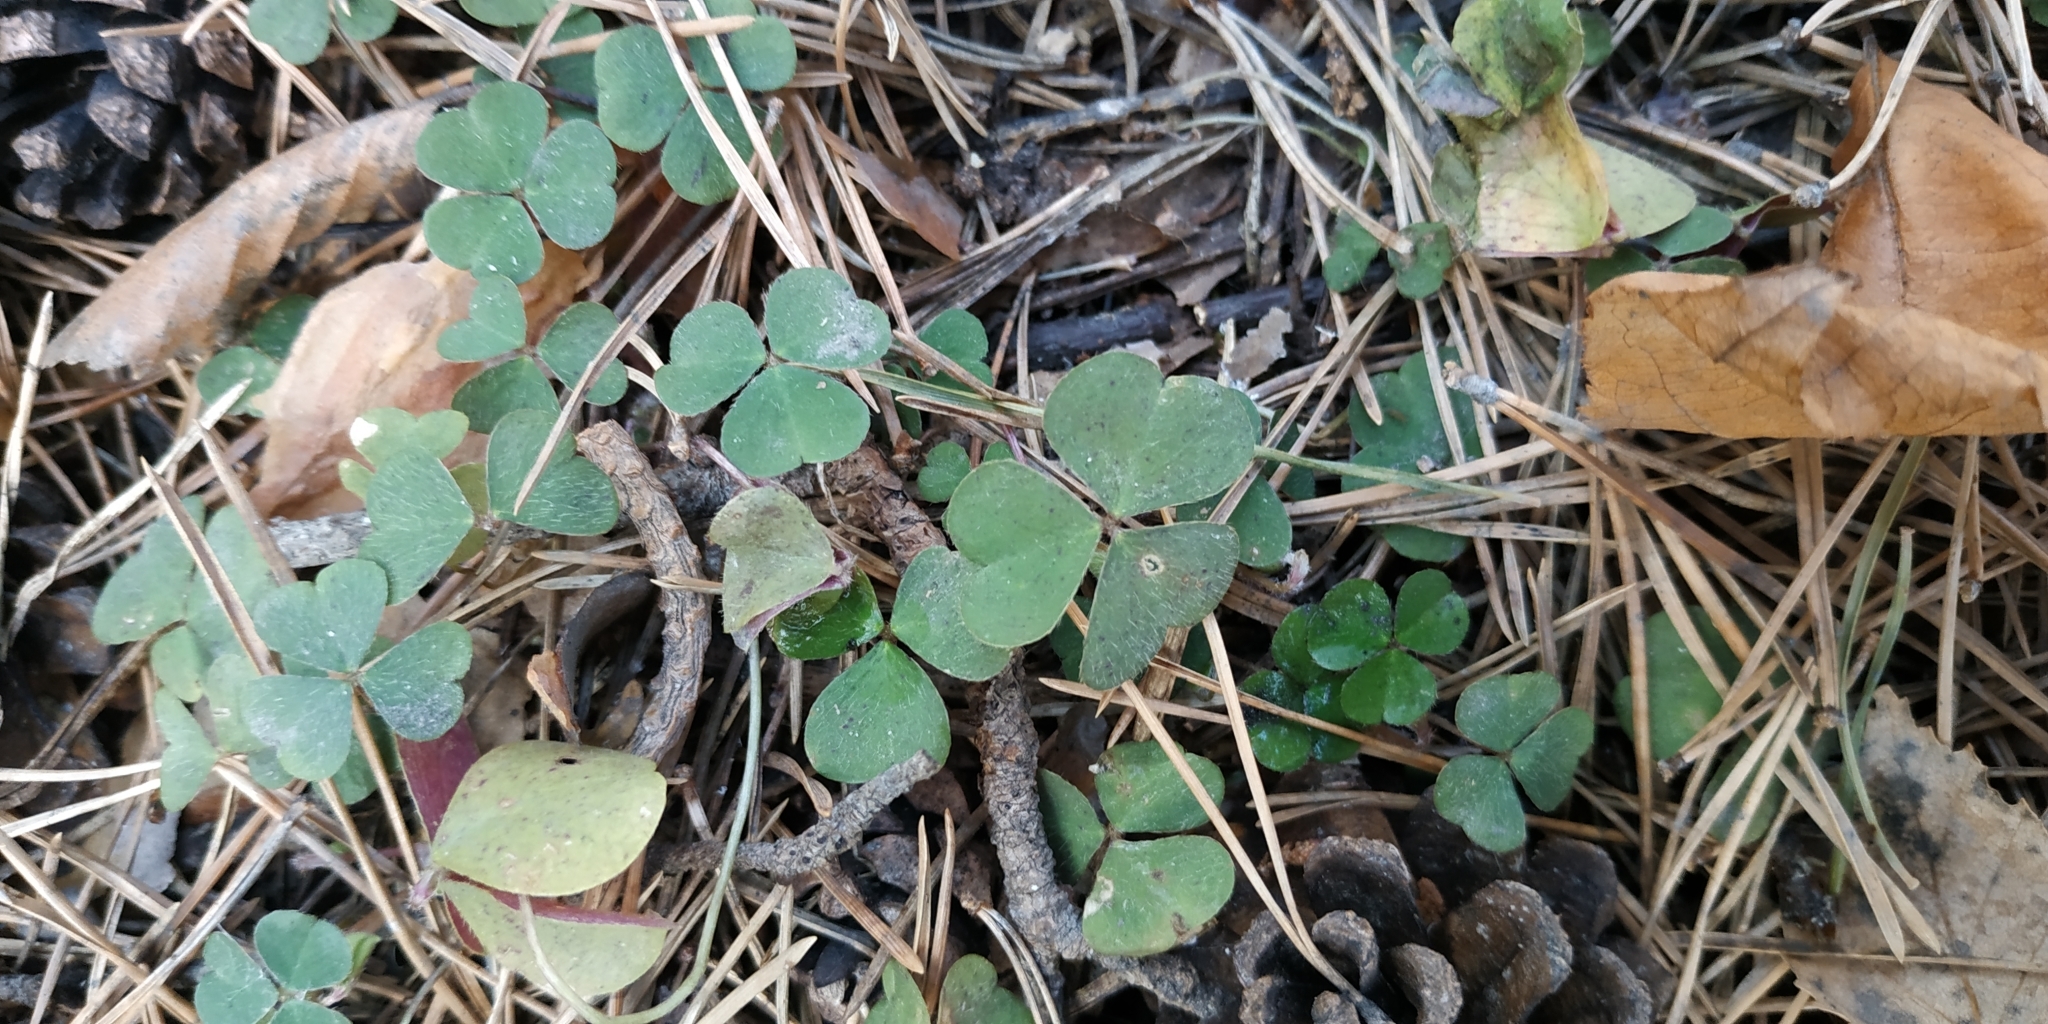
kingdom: Plantae
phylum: Tracheophyta
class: Magnoliopsida
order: Oxalidales
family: Oxalidaceae
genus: Oxalis
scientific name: Oxalis acetosella
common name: Wood-sorrel
